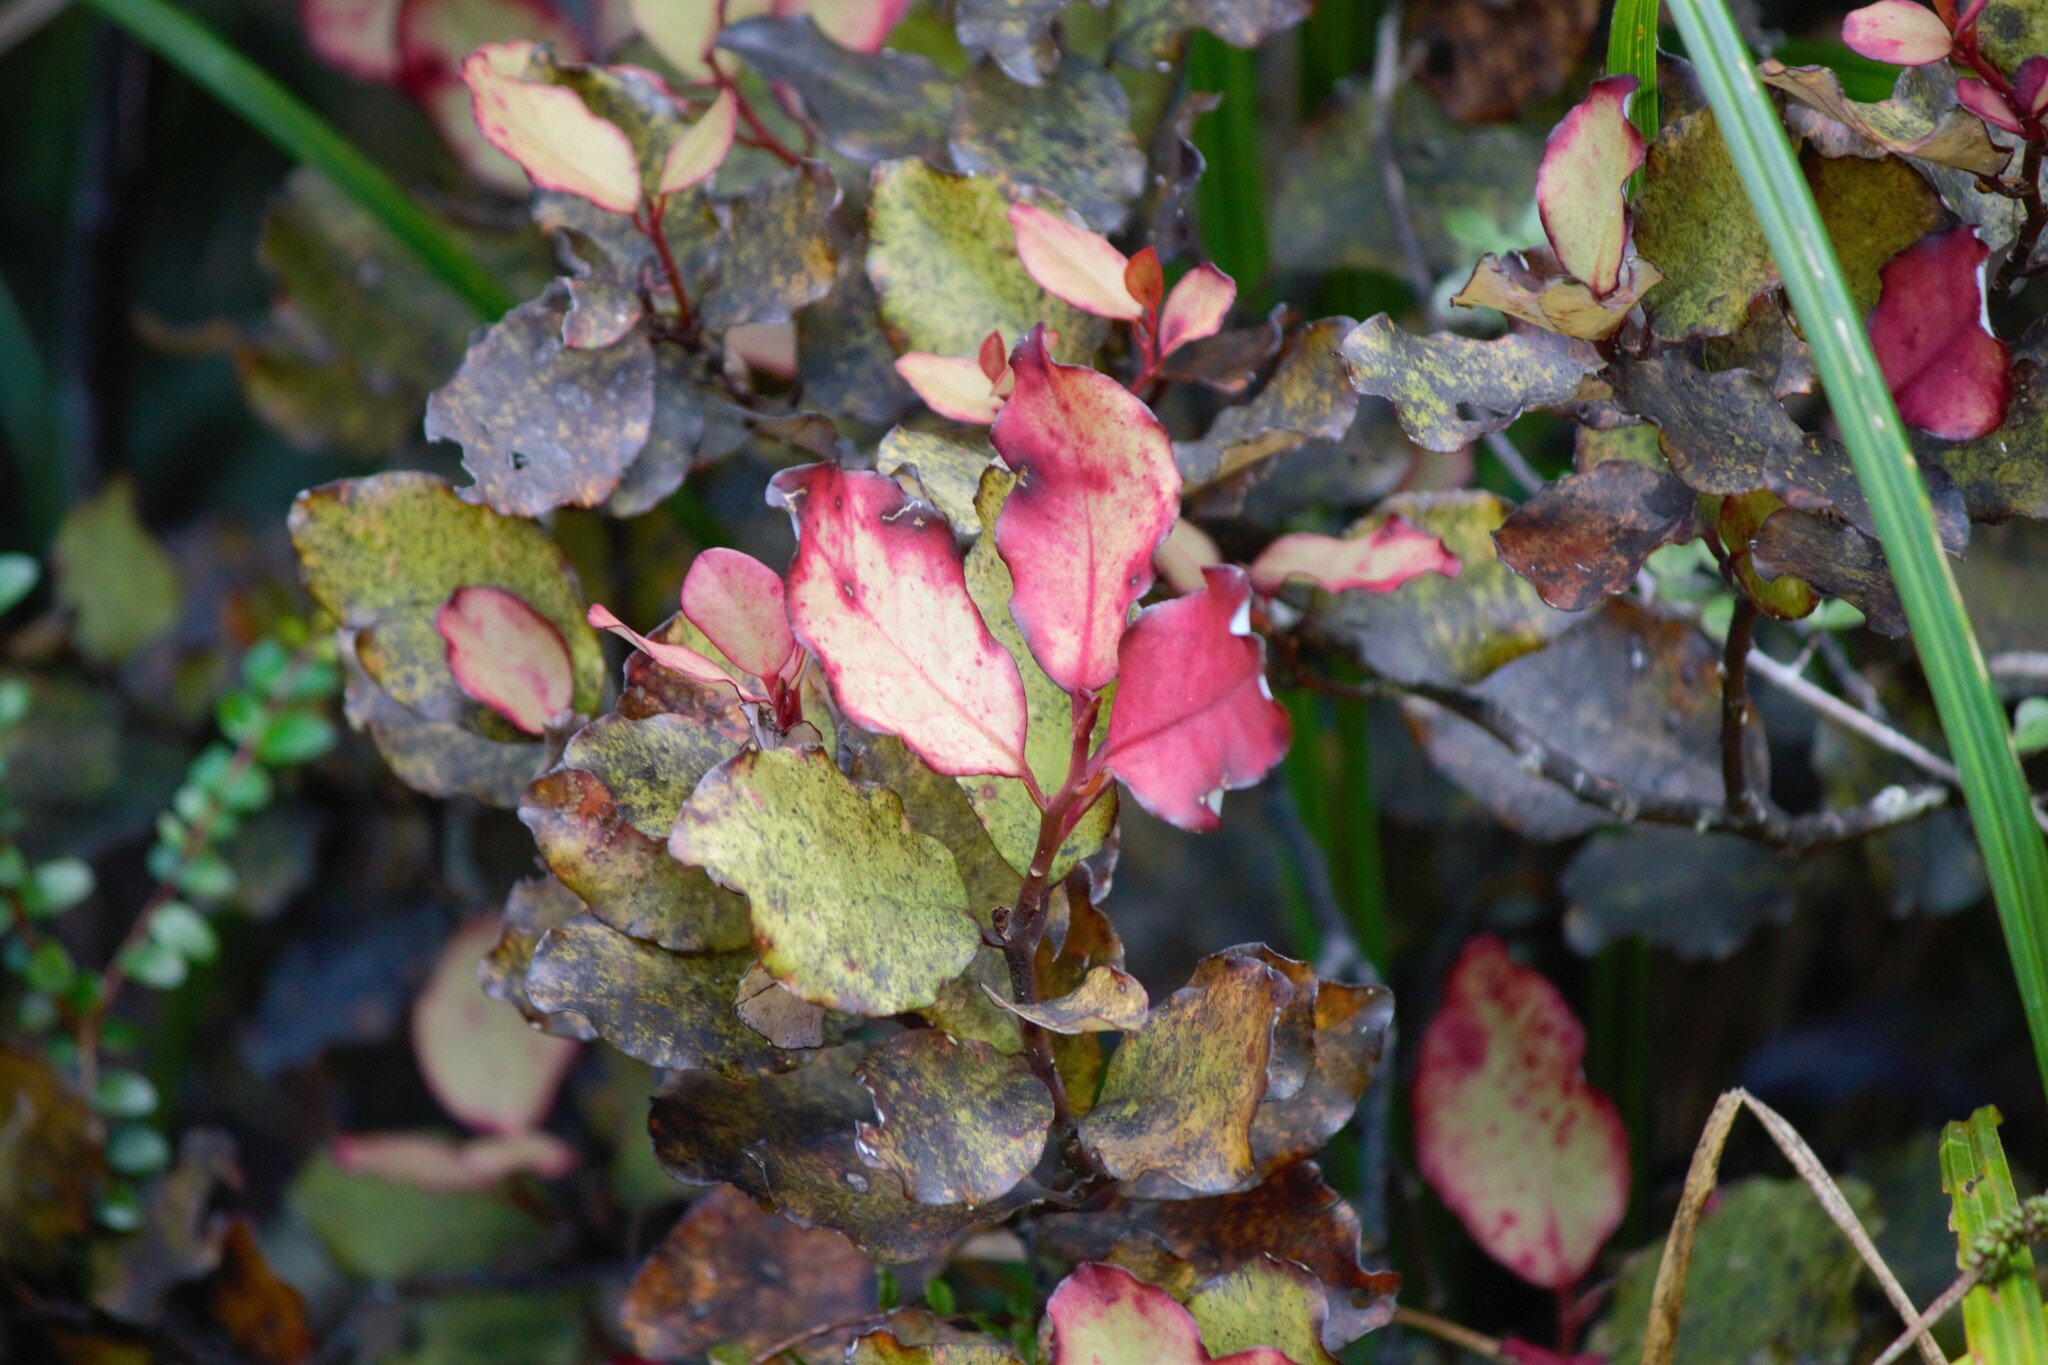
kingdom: Plantae
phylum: Tracheophyta
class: Magnoliopsida
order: Canellales
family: Winteraceae
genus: Pseudowintera
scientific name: Pseudowintera colorata
